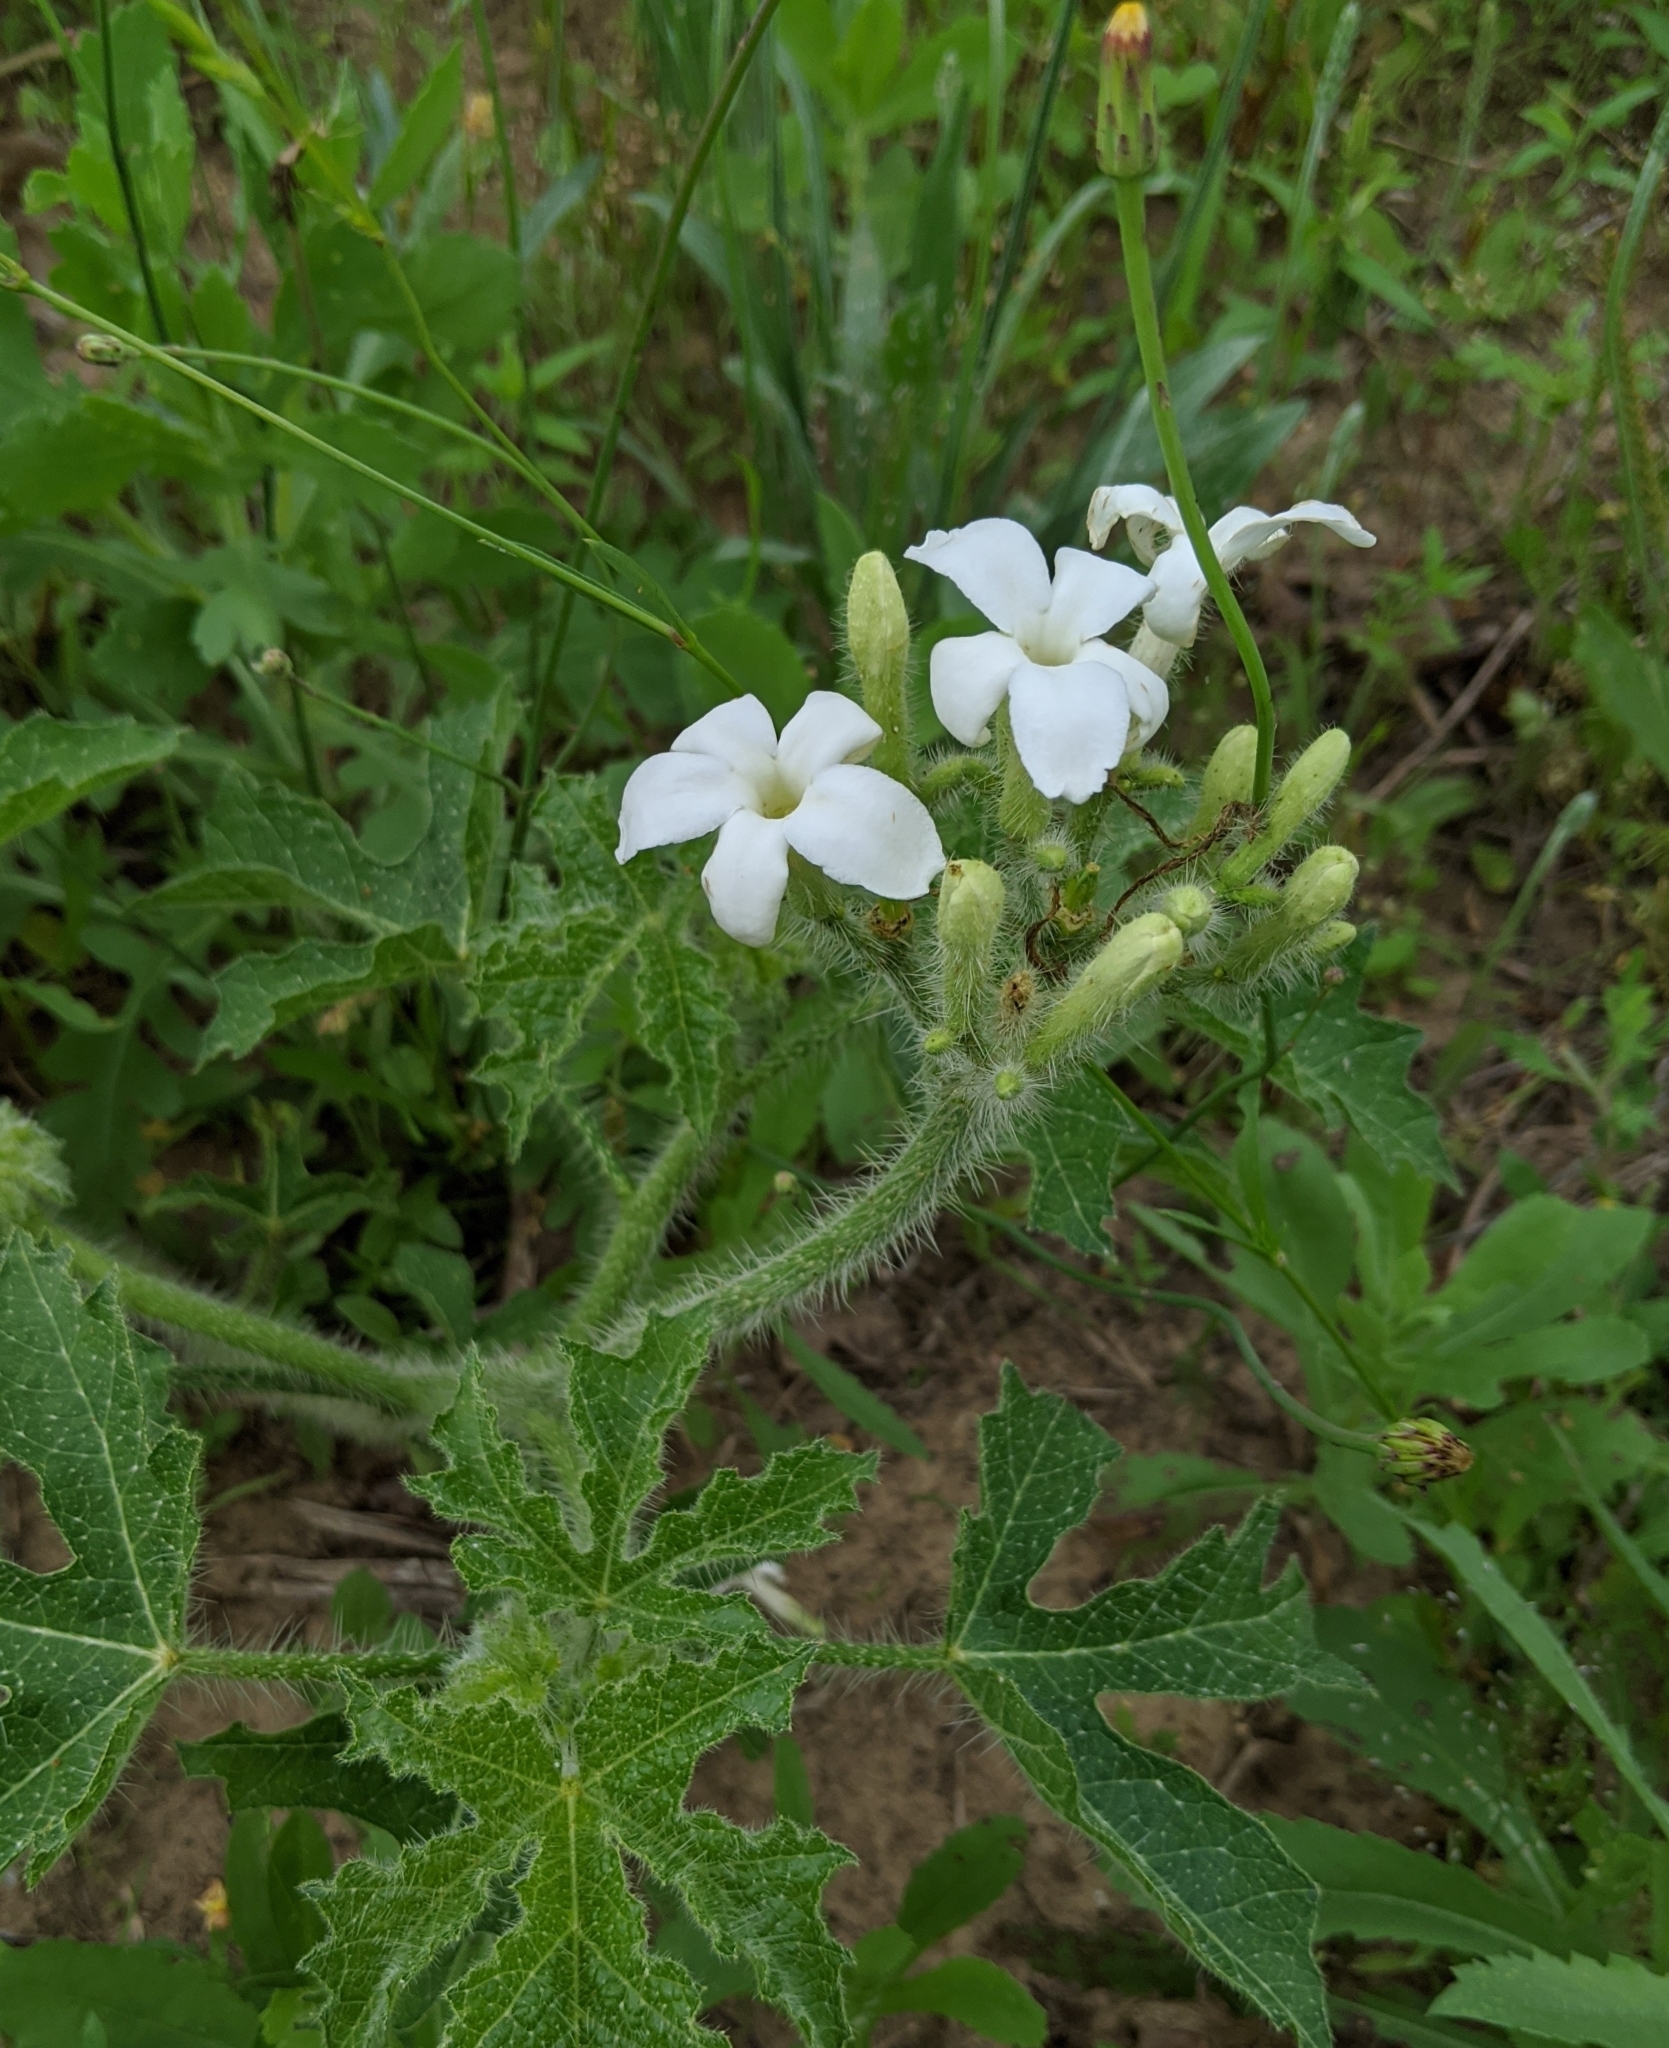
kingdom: Plantae
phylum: Tracheophyta
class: Magnoliopsida
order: Malpighiales
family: Euphorbiaceae
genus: Cnidoscolus
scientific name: Cnidoscolus texanus
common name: Texas bull-nettle
